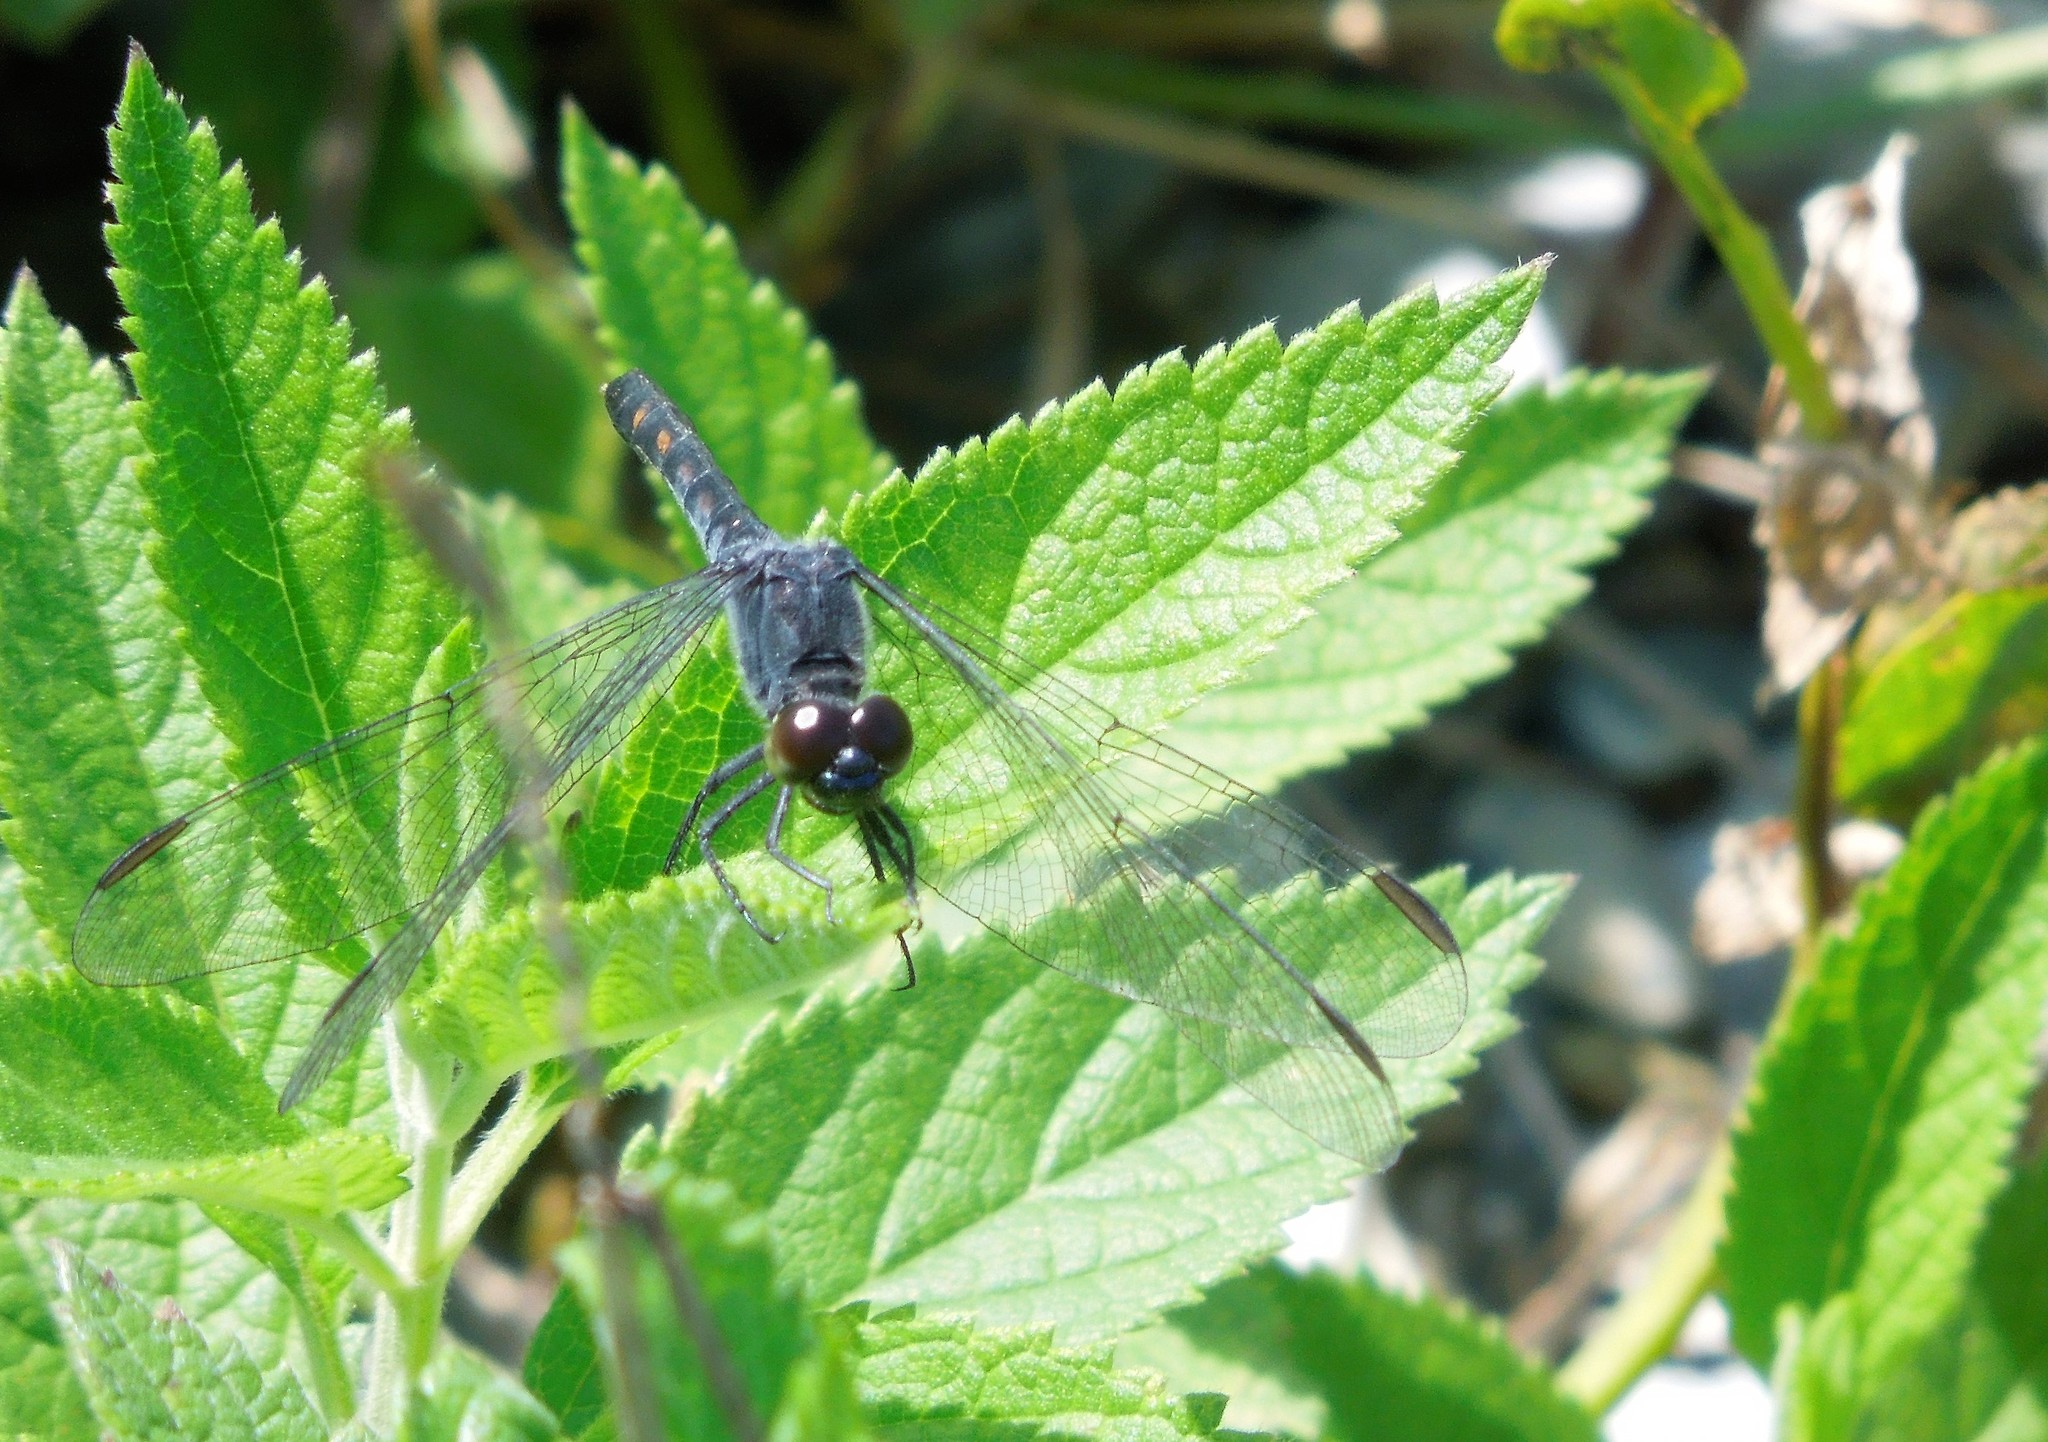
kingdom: Animalia
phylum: Arthropoda
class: Insecta
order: Odonata
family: Libellulidae
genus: Erythrodiplax
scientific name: Erythrodiplax berenice
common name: Seaside dragonlet
